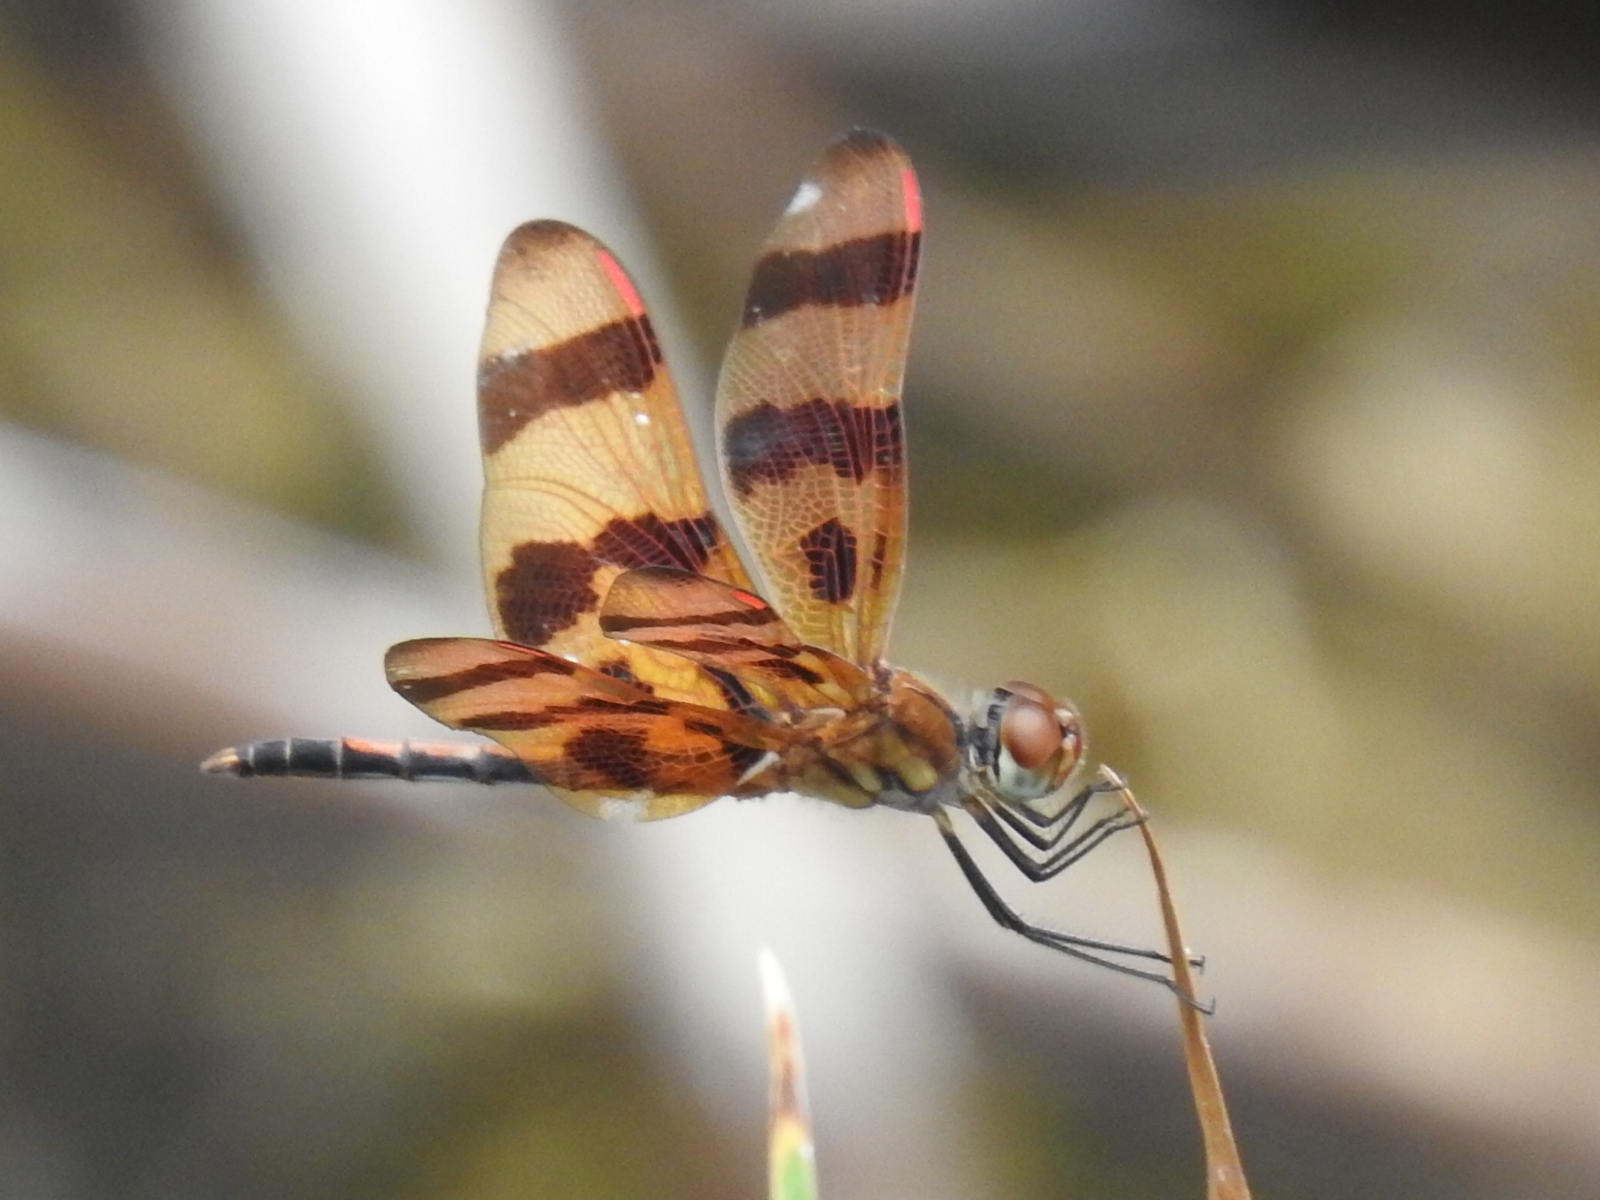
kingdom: Animalia
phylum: Arthropoda
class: Insecta
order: Odonata
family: Libellulidae
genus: Celithemis
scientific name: Celithemis eponina
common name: Halloween pennant
